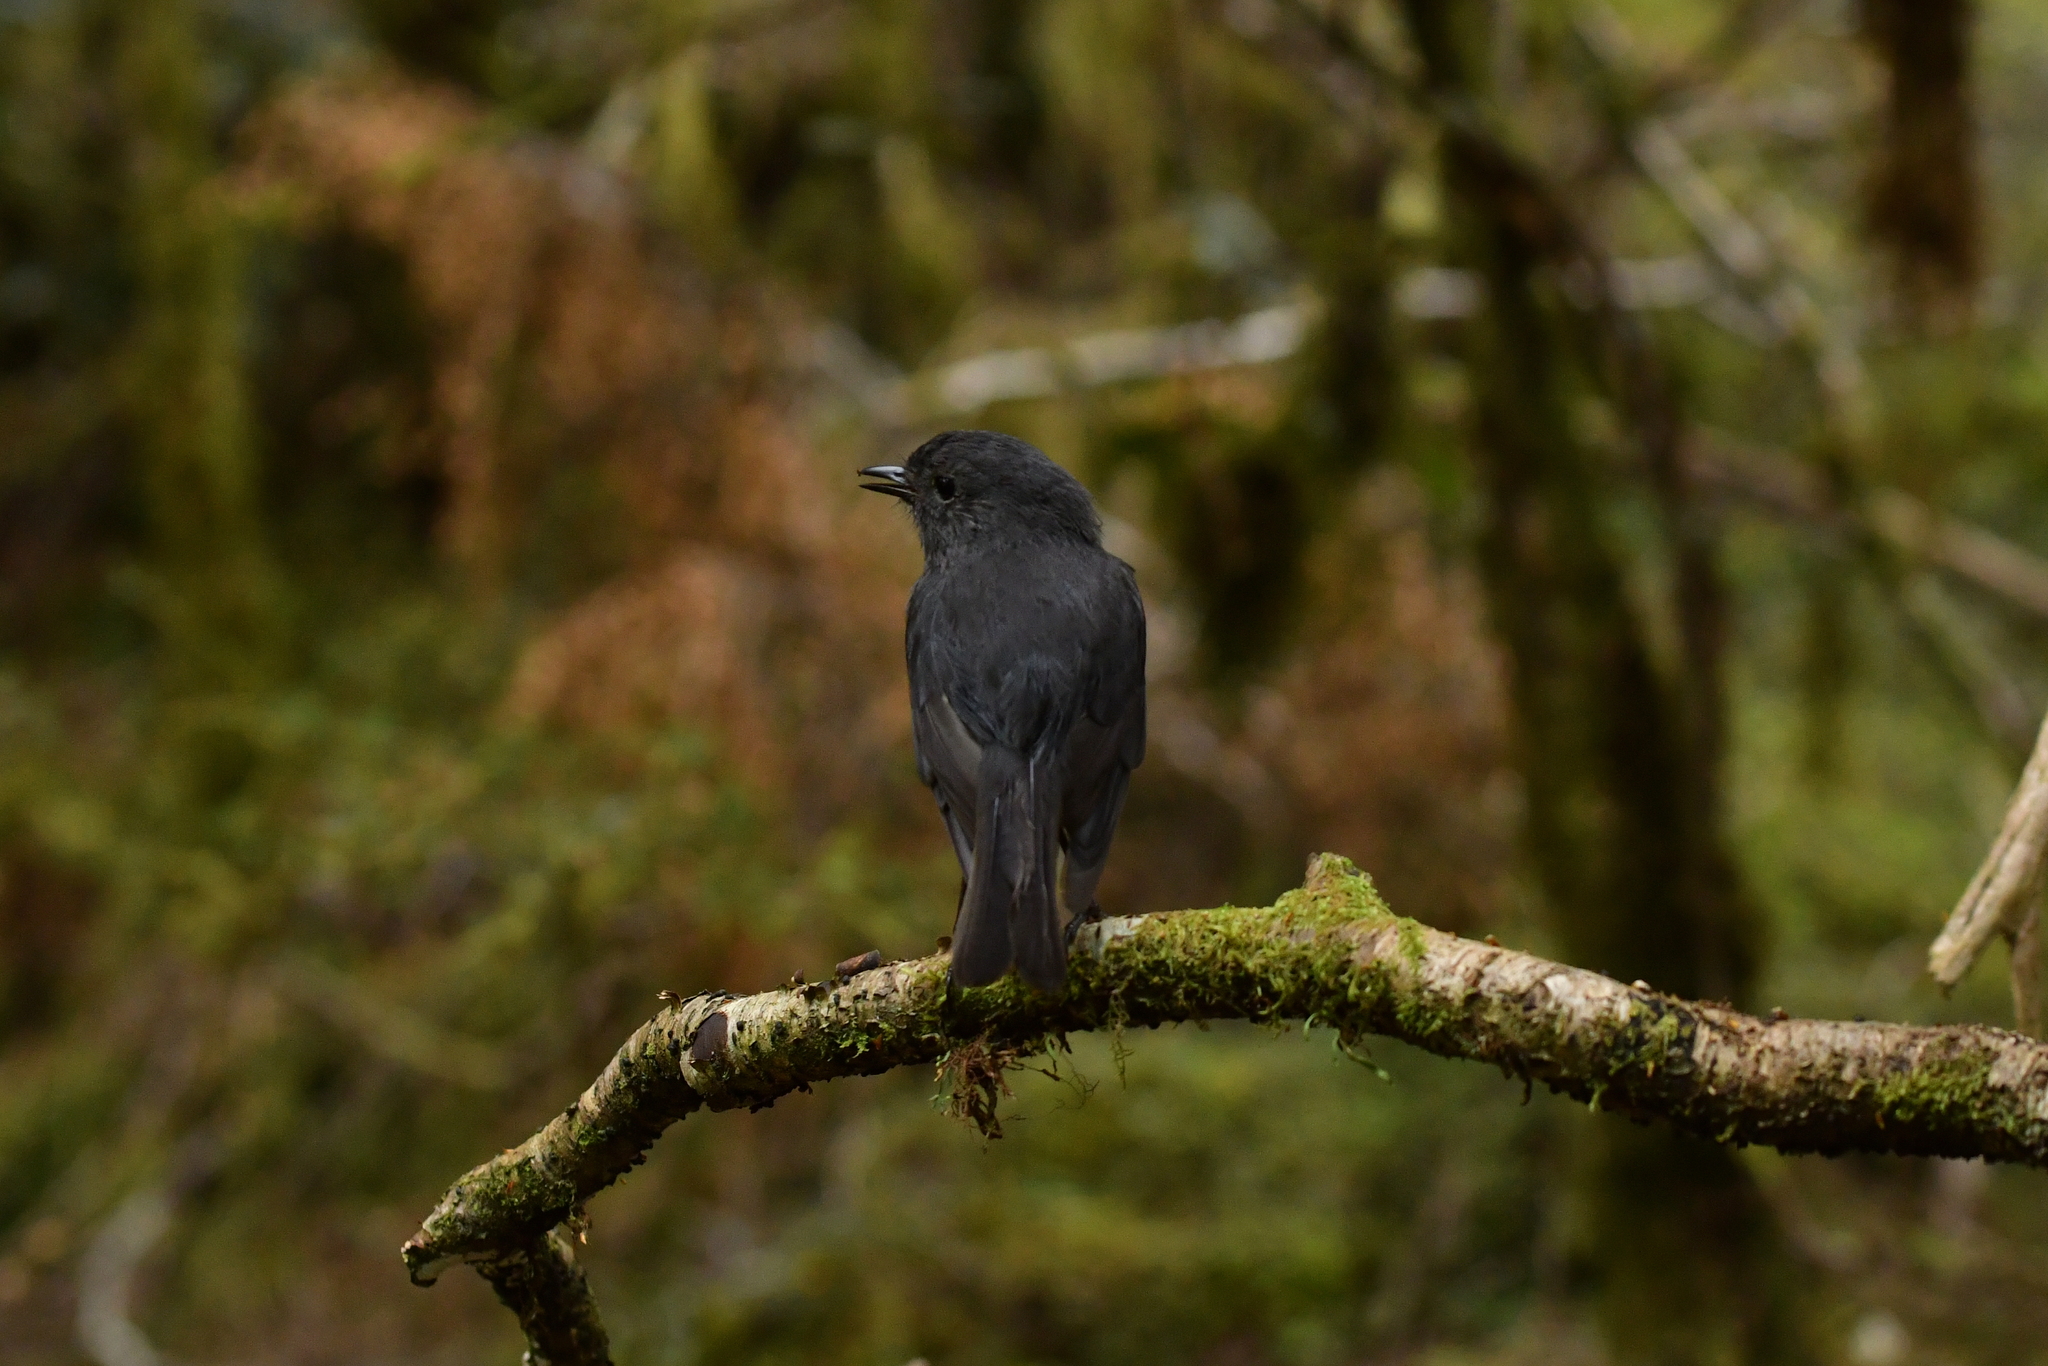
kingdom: Animalia
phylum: Chordata
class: Aves
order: Passeriformes
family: Petroicidae
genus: Petroica
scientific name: Petroica australis
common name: New zealand robin
